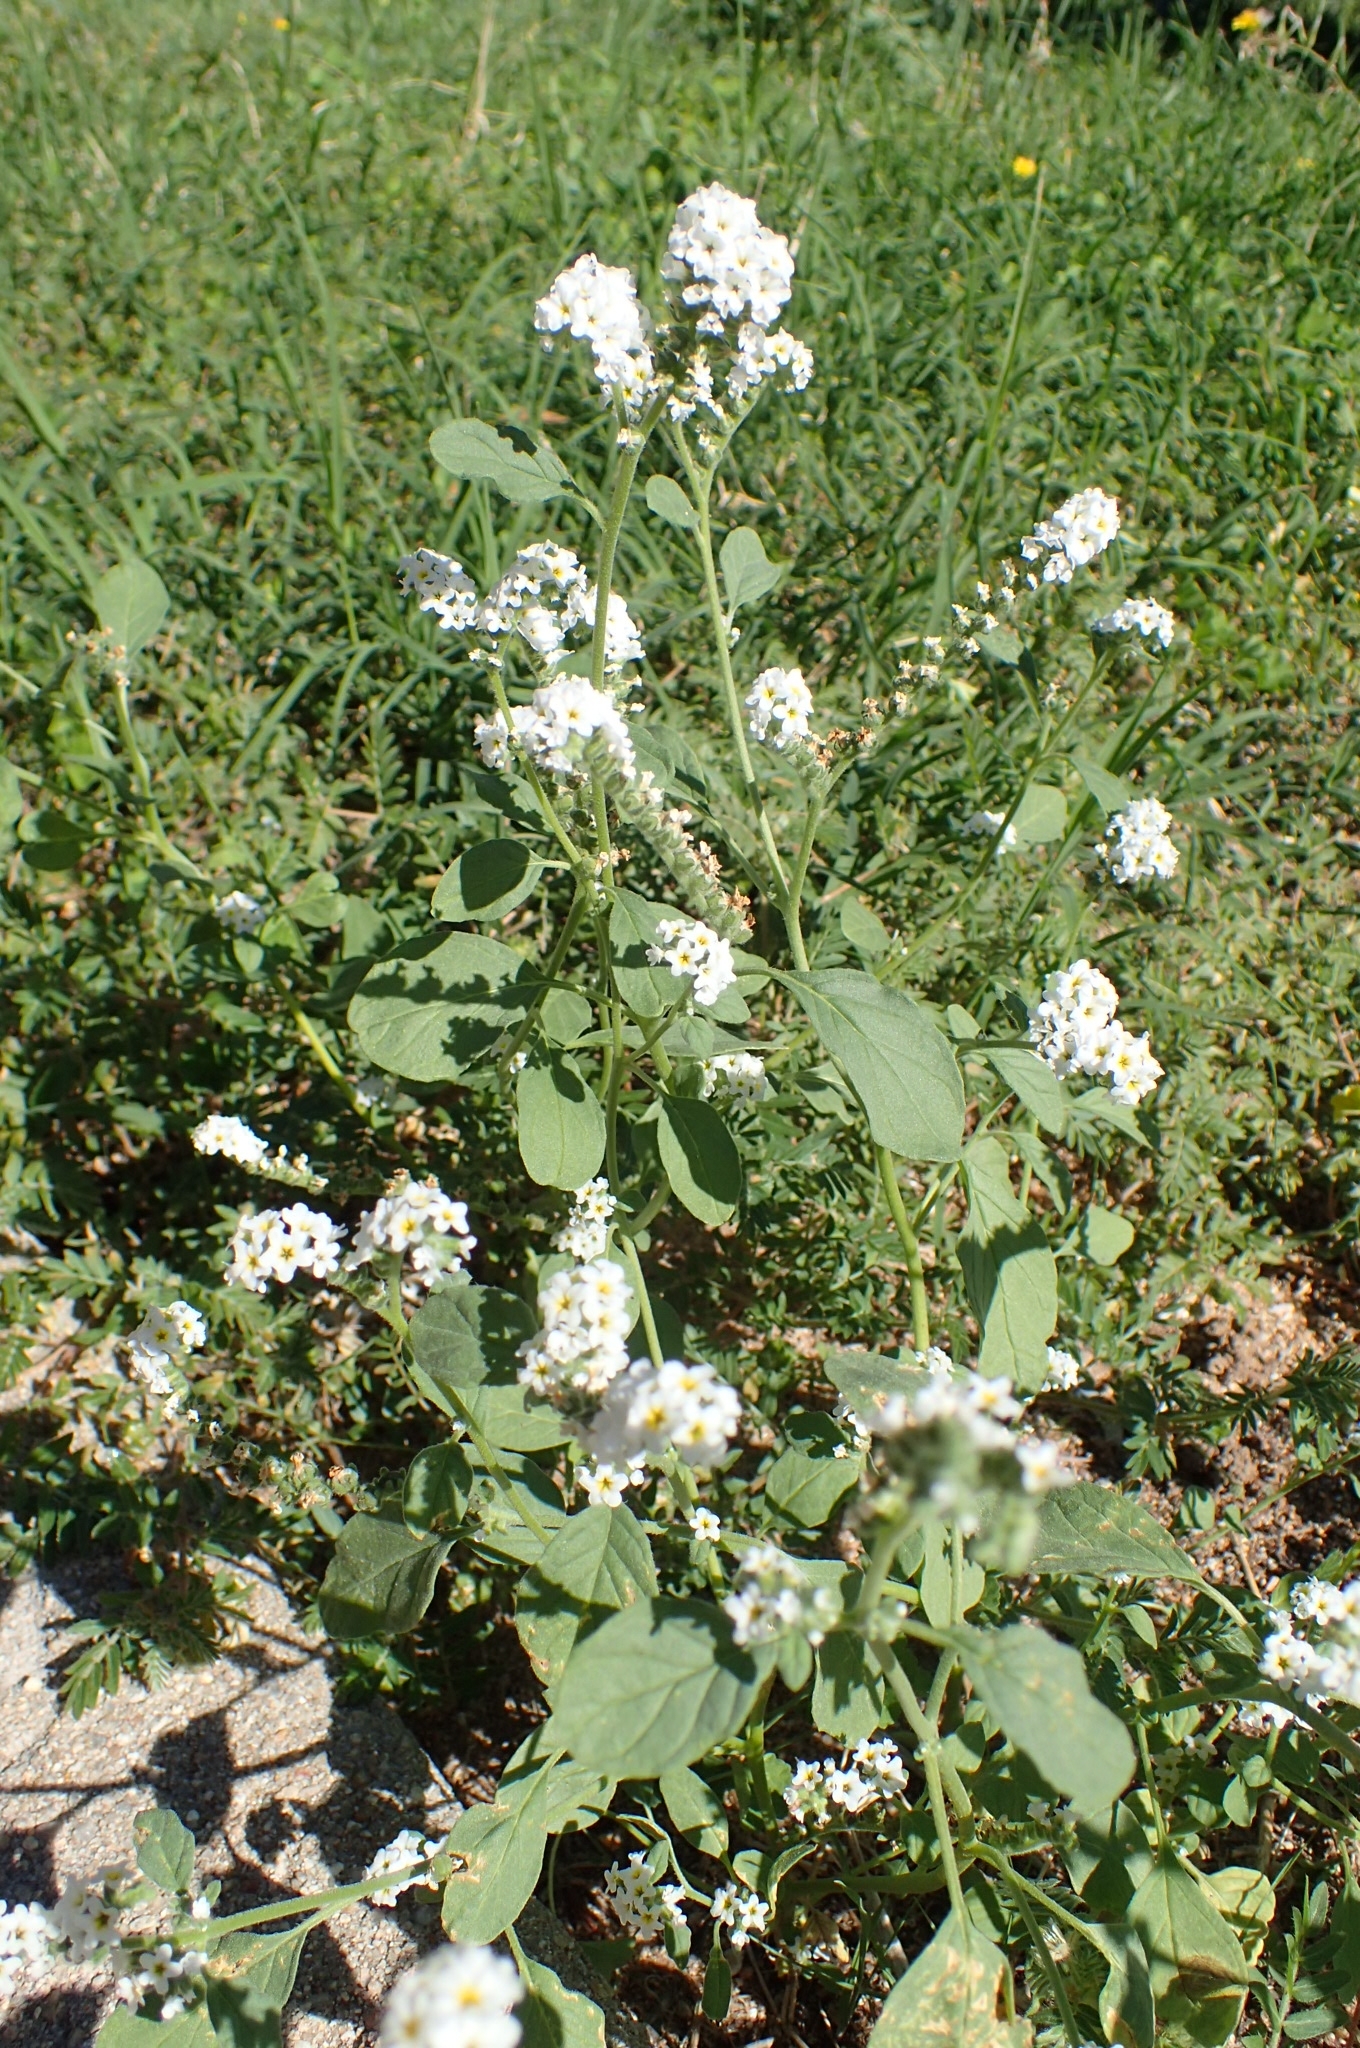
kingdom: Plantae
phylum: Tracheophyta
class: Magnoliopsida
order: Boraginales
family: Heliotropiaceae
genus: Heliotropium
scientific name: Heliotropium europaeum
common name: European heliotrope
